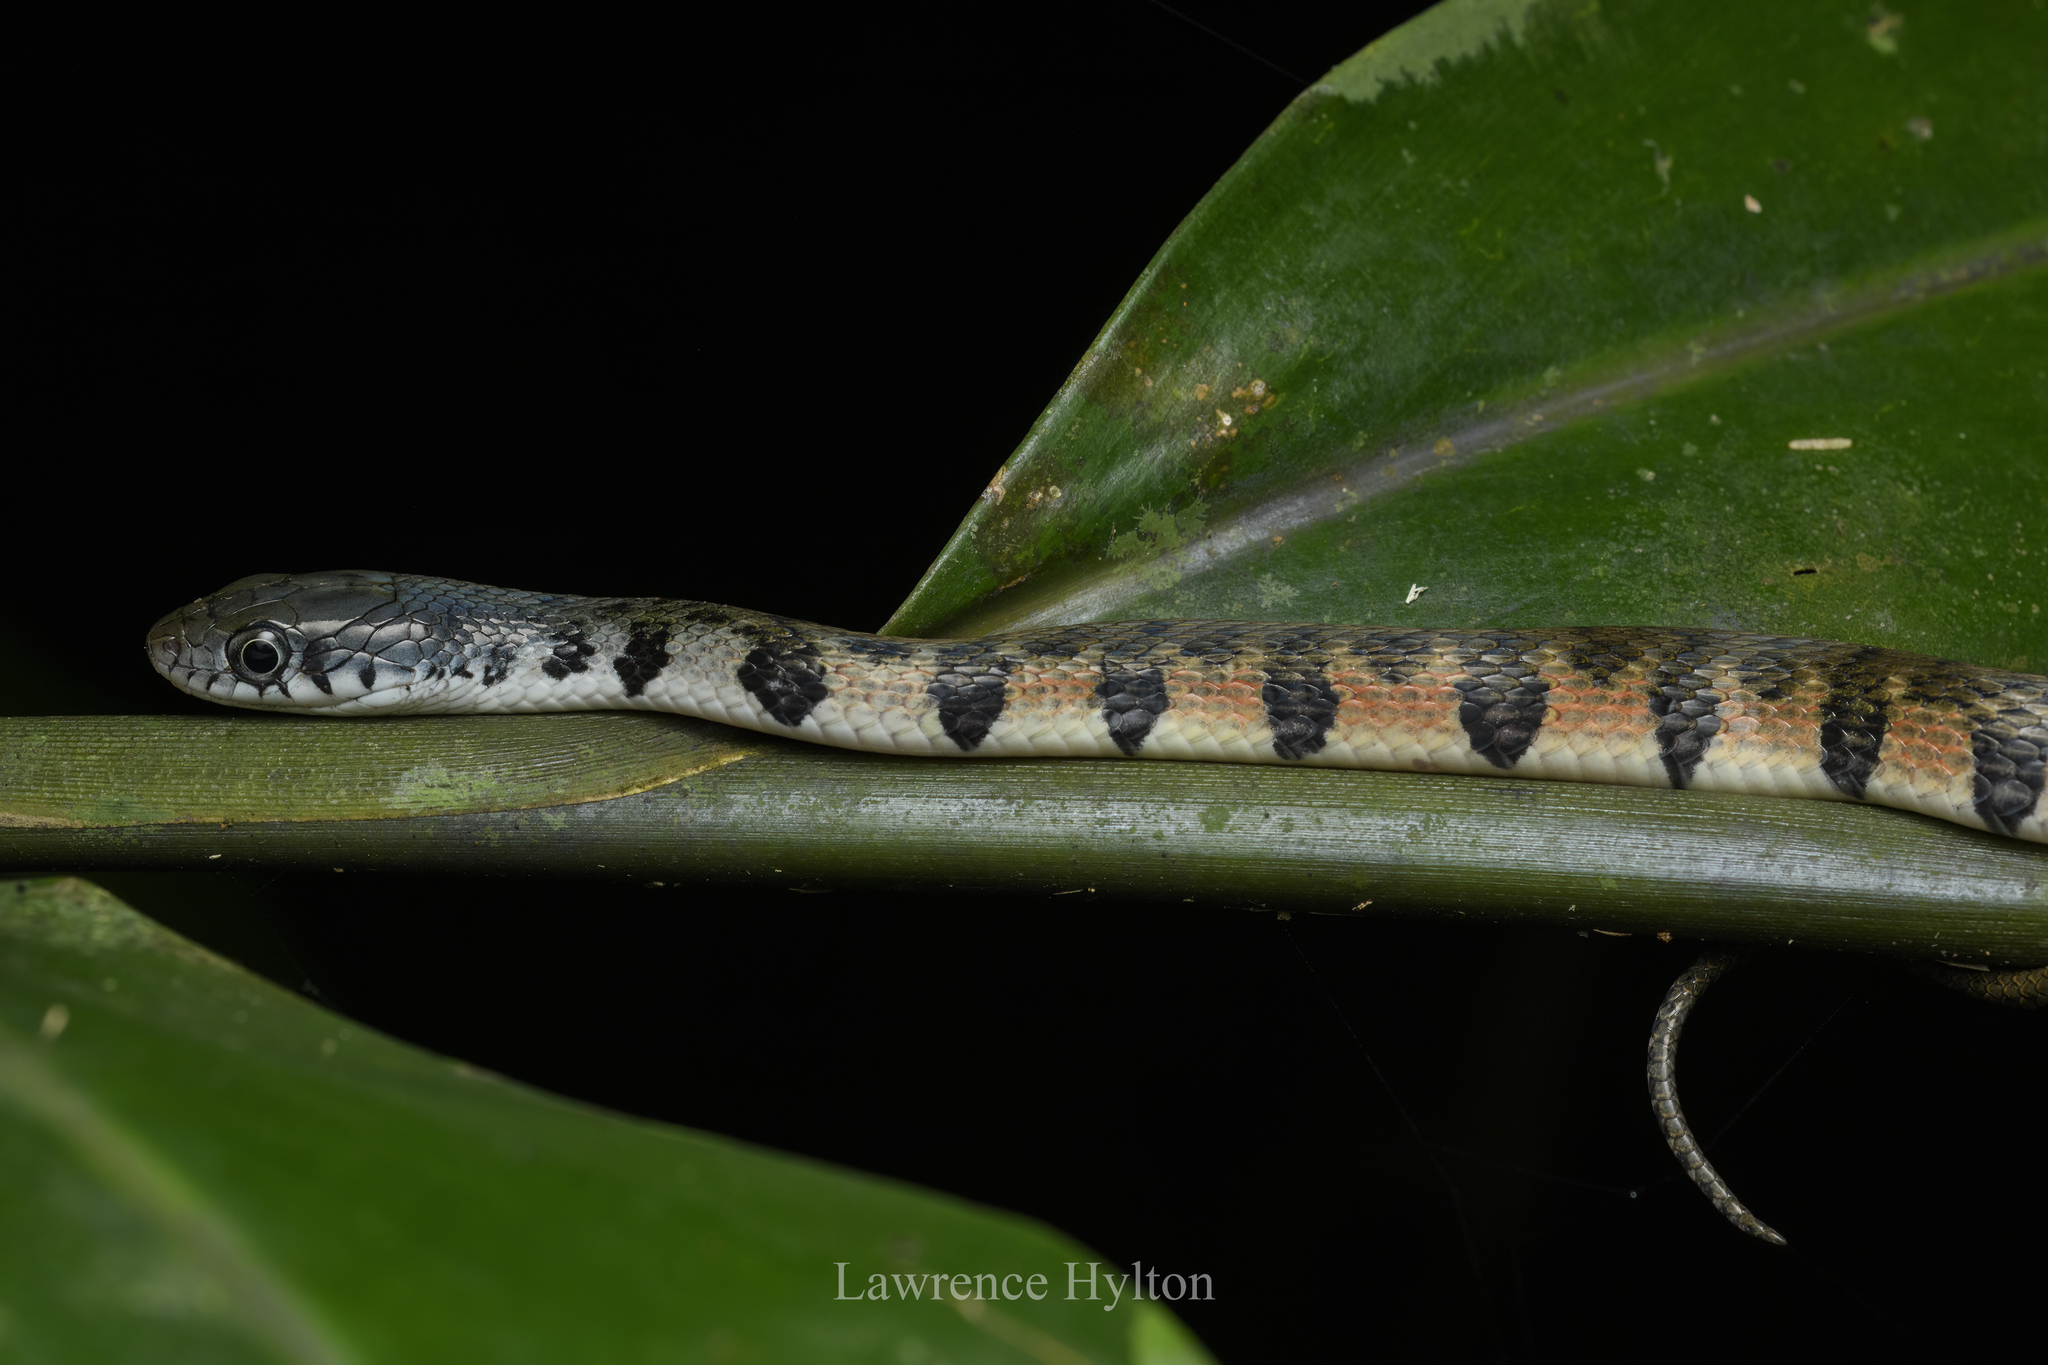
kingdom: Animalia
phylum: Chordata
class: Squamata
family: Colubridae
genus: Xenochrophis
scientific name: Xenochrophis trianguligerus
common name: Triangle keelback
